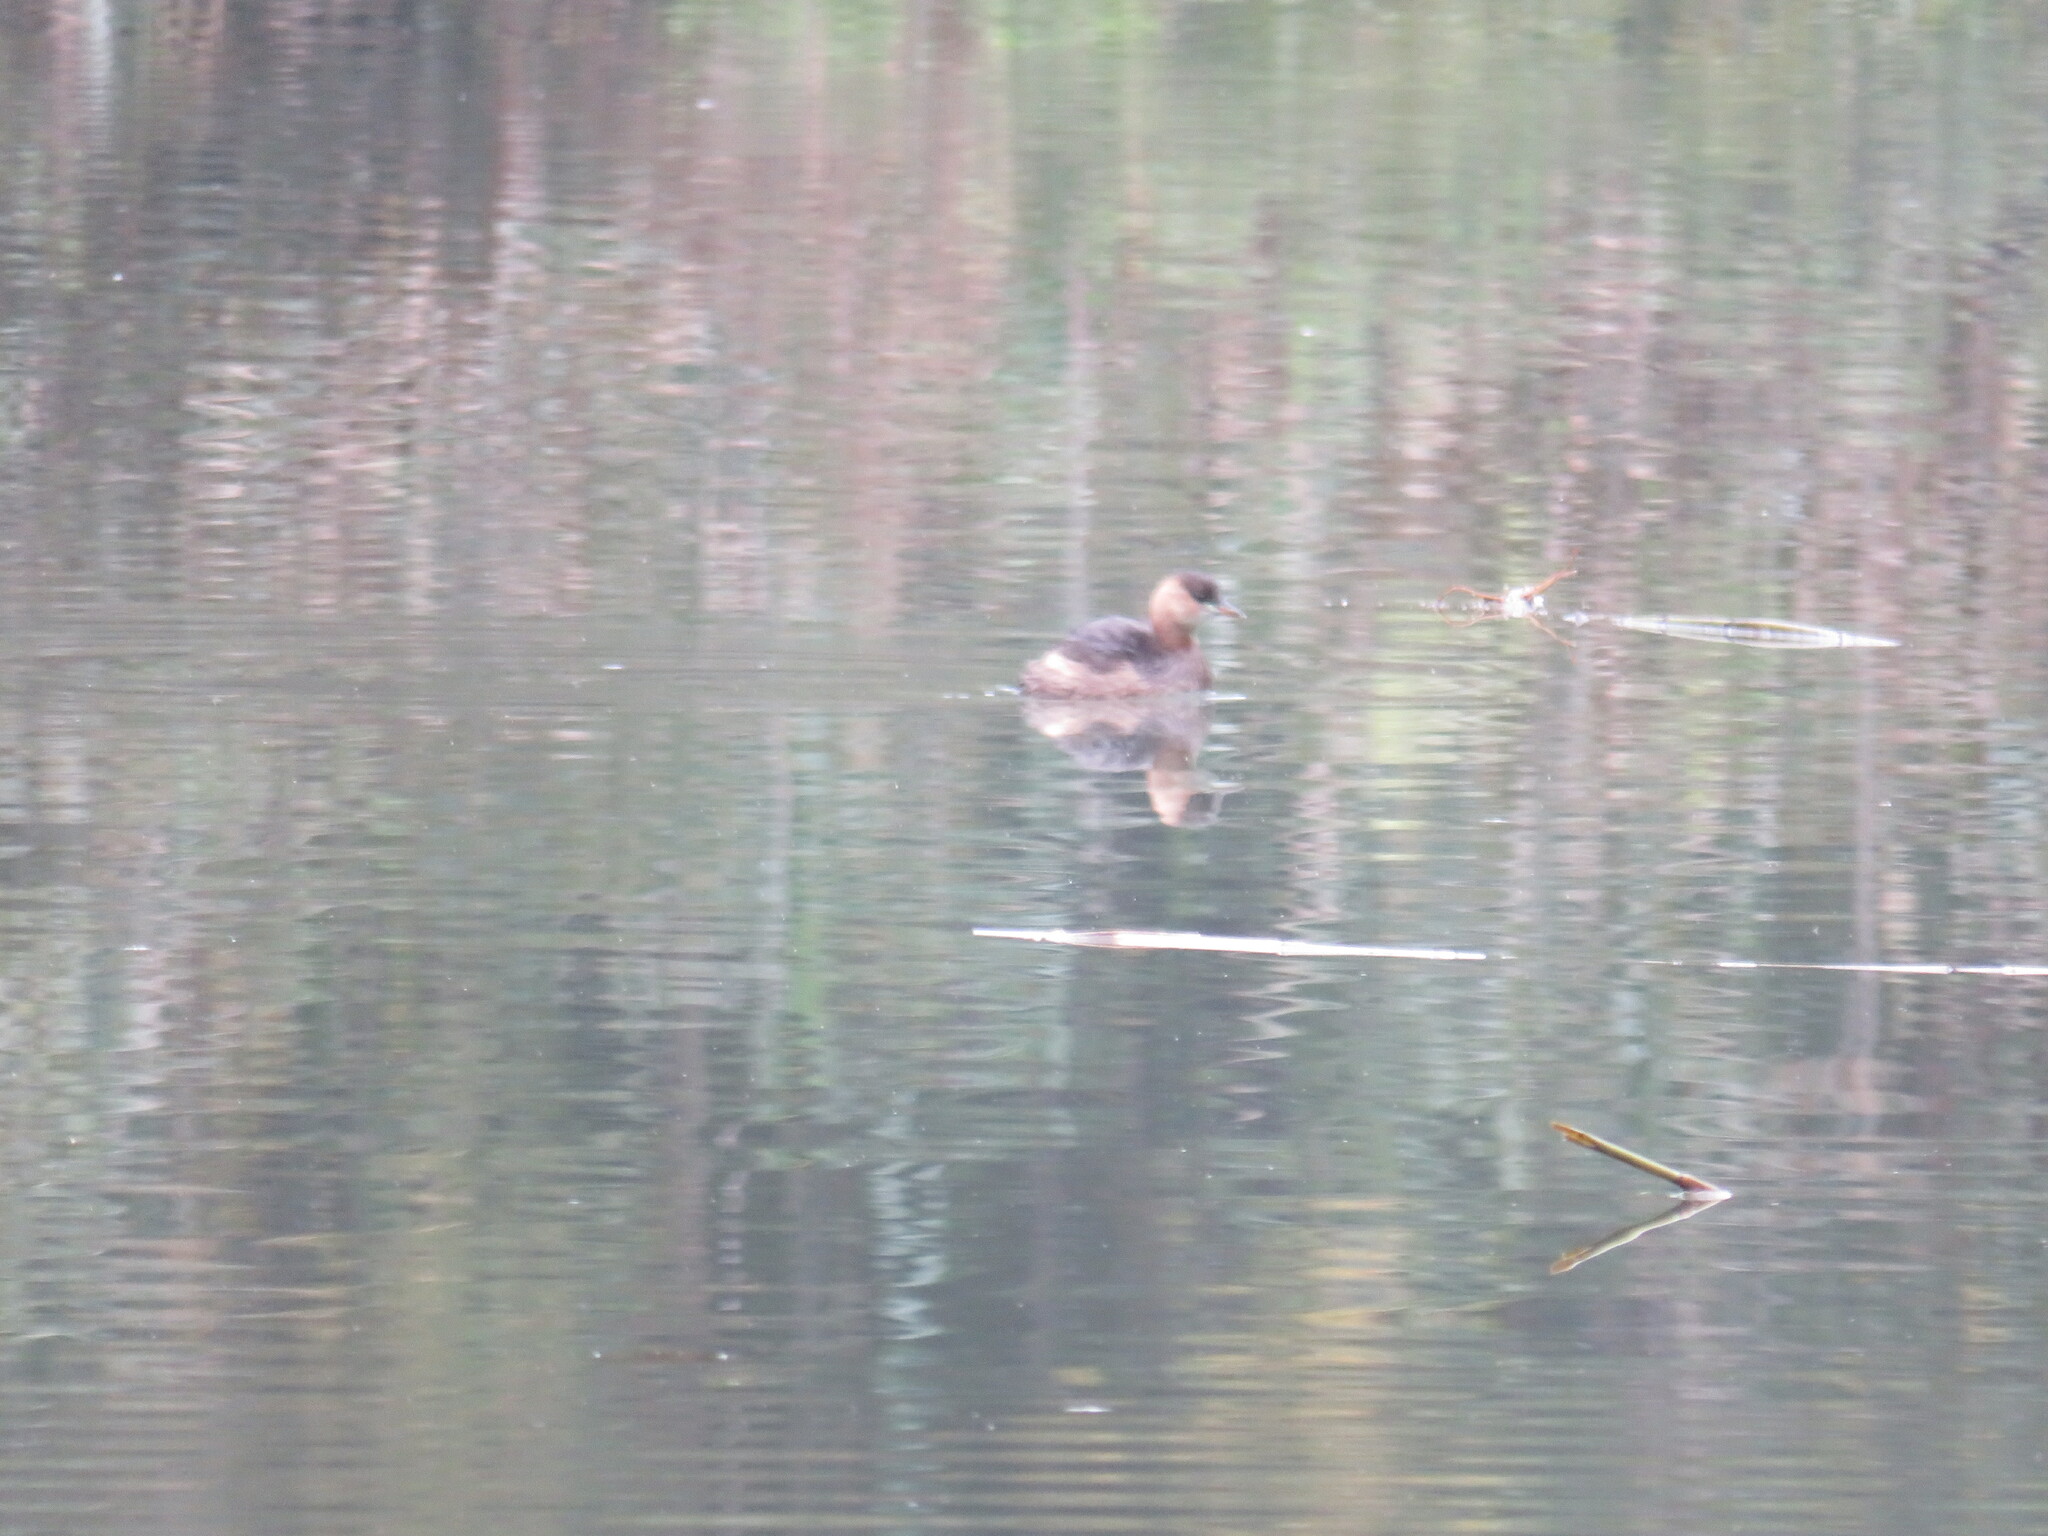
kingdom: Animalia
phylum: Chordata
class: Aves
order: Podicipediformes
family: Podicipedidae
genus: Tachybaptus
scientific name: Tachybaptus ruficollis
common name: Little grebe
